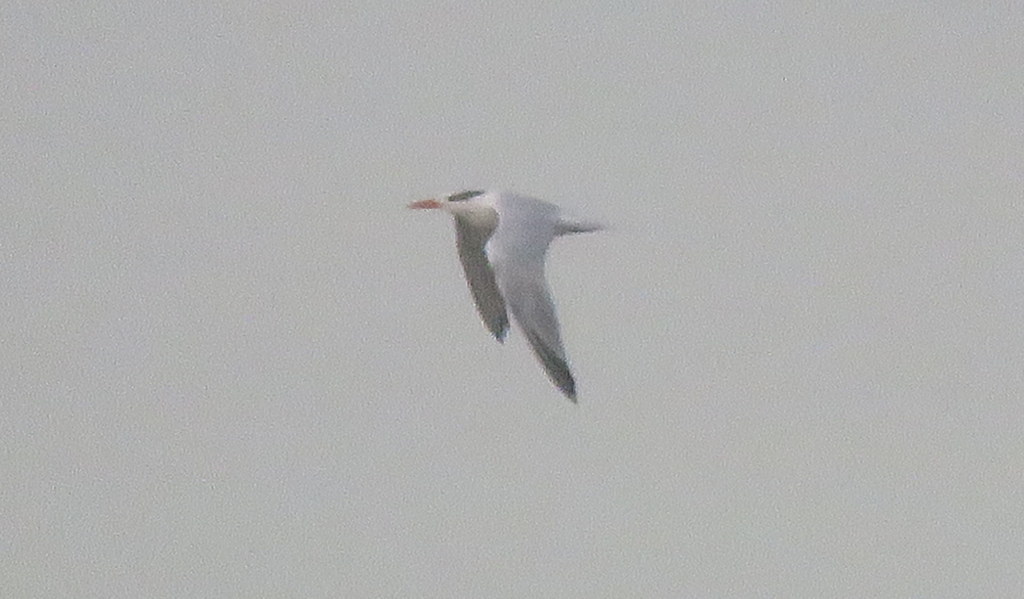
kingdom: Animalia
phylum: Chordata
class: Aves
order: Charadriiformes
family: Laridae
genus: Thalasseus
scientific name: Thalasseus maximus
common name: Royal tern
